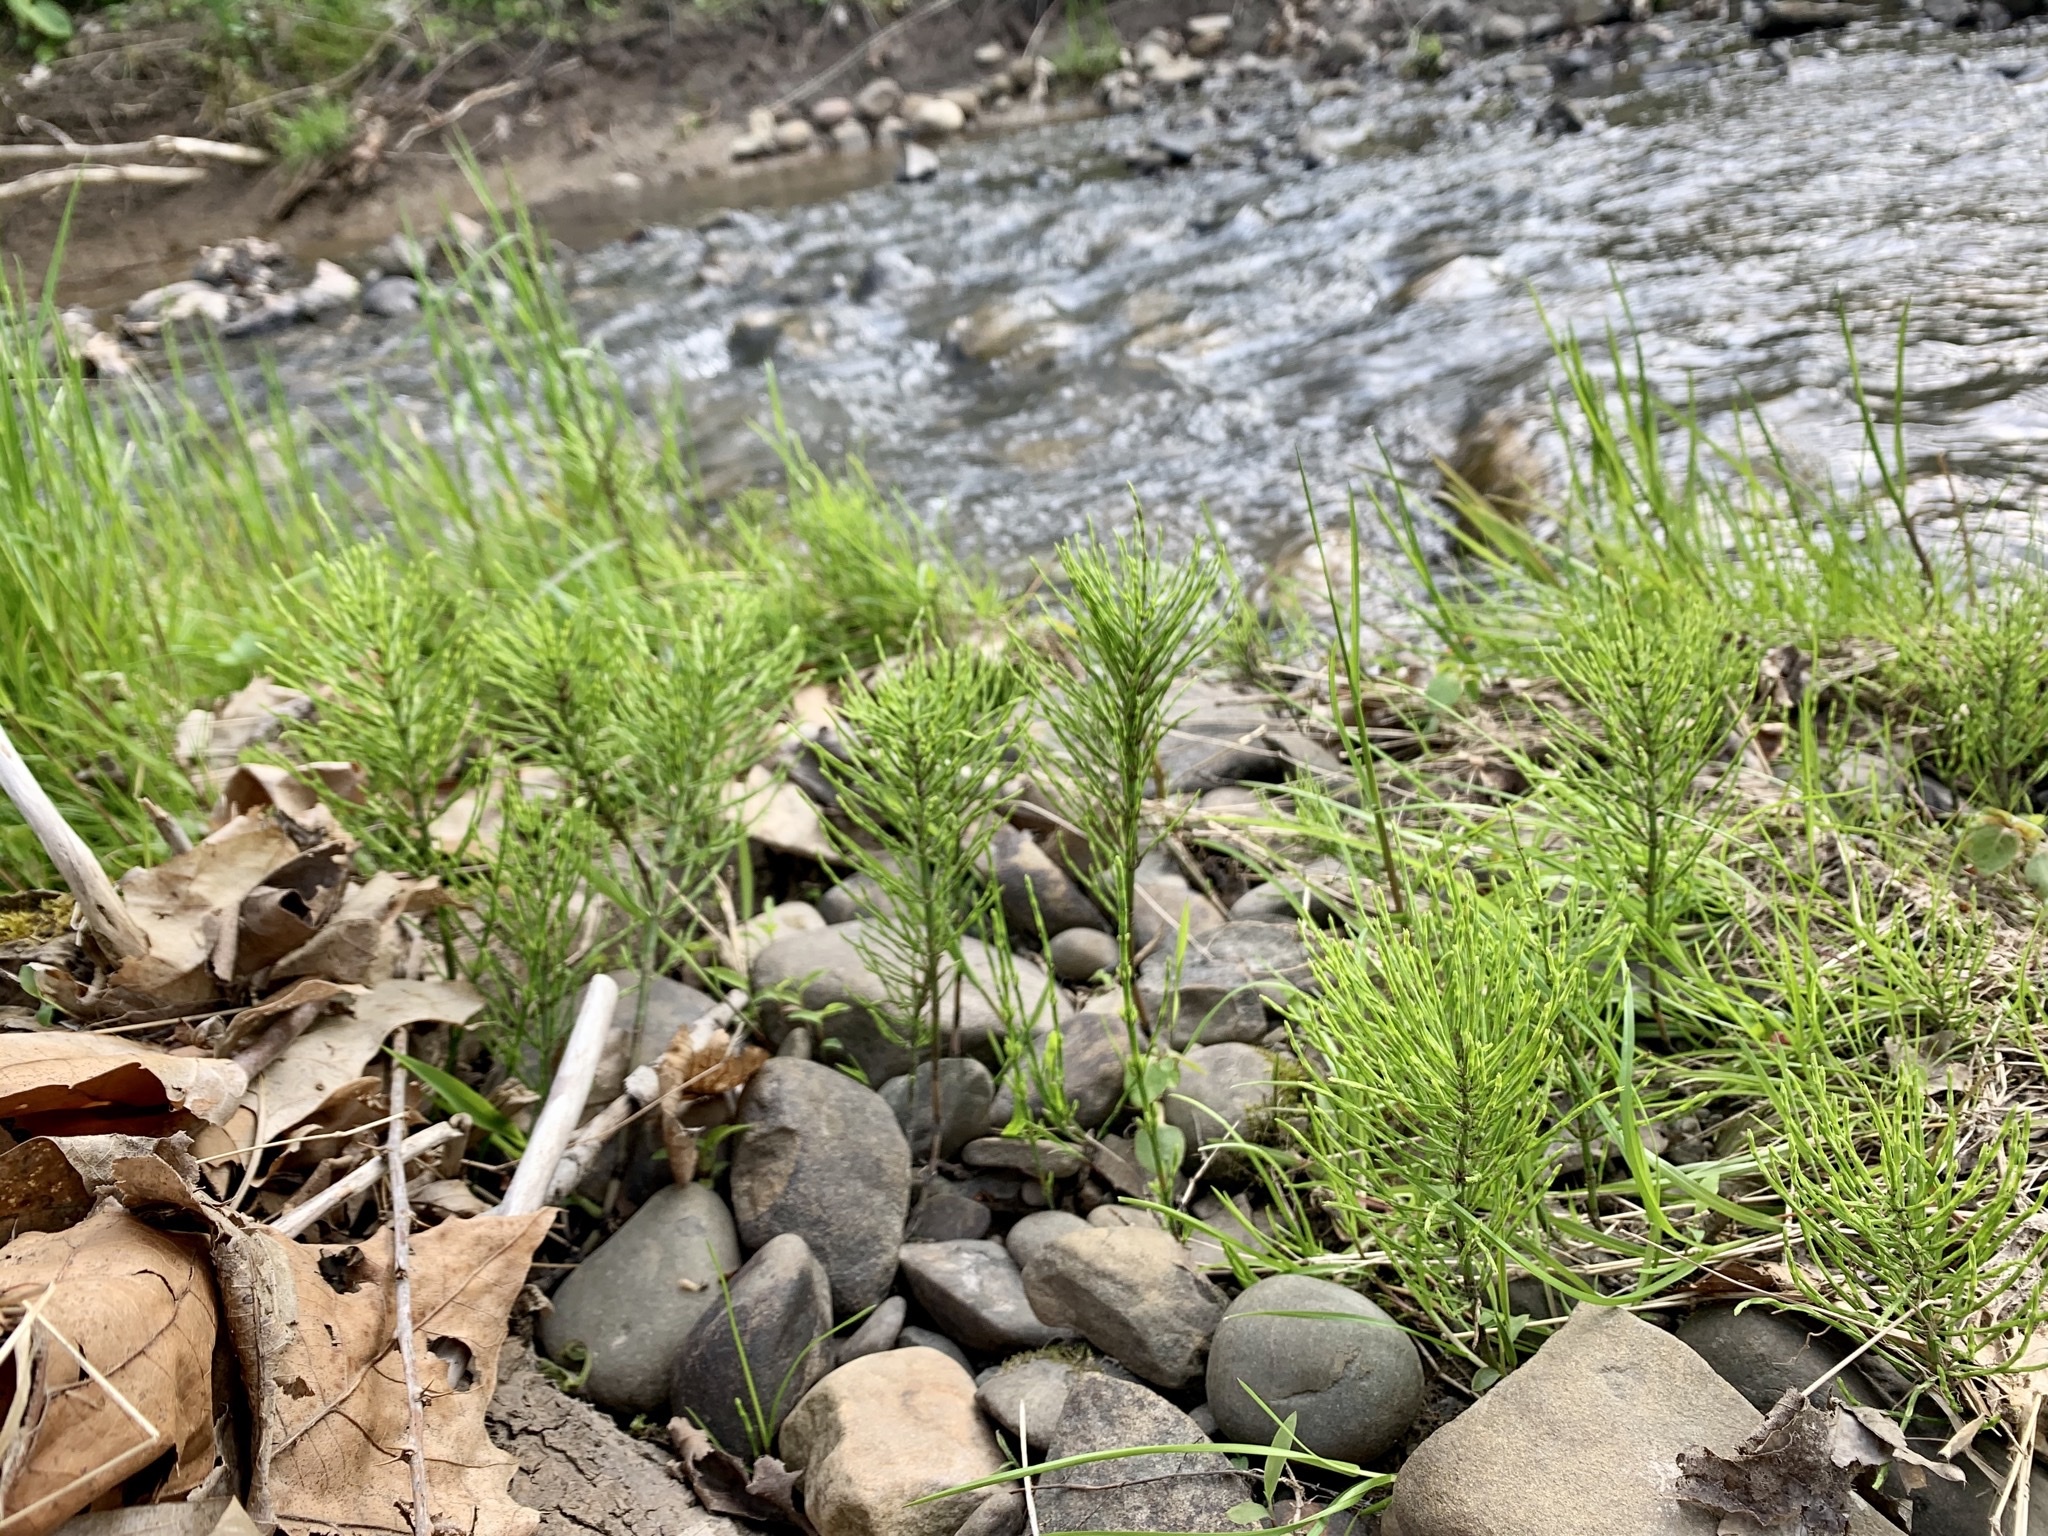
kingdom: Plantae
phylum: Tracheophyta
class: Polypodiopsida
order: Equisetales
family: Equisetaceae
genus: Equisetum
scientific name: Equisetum arvense
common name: Field horsetail
